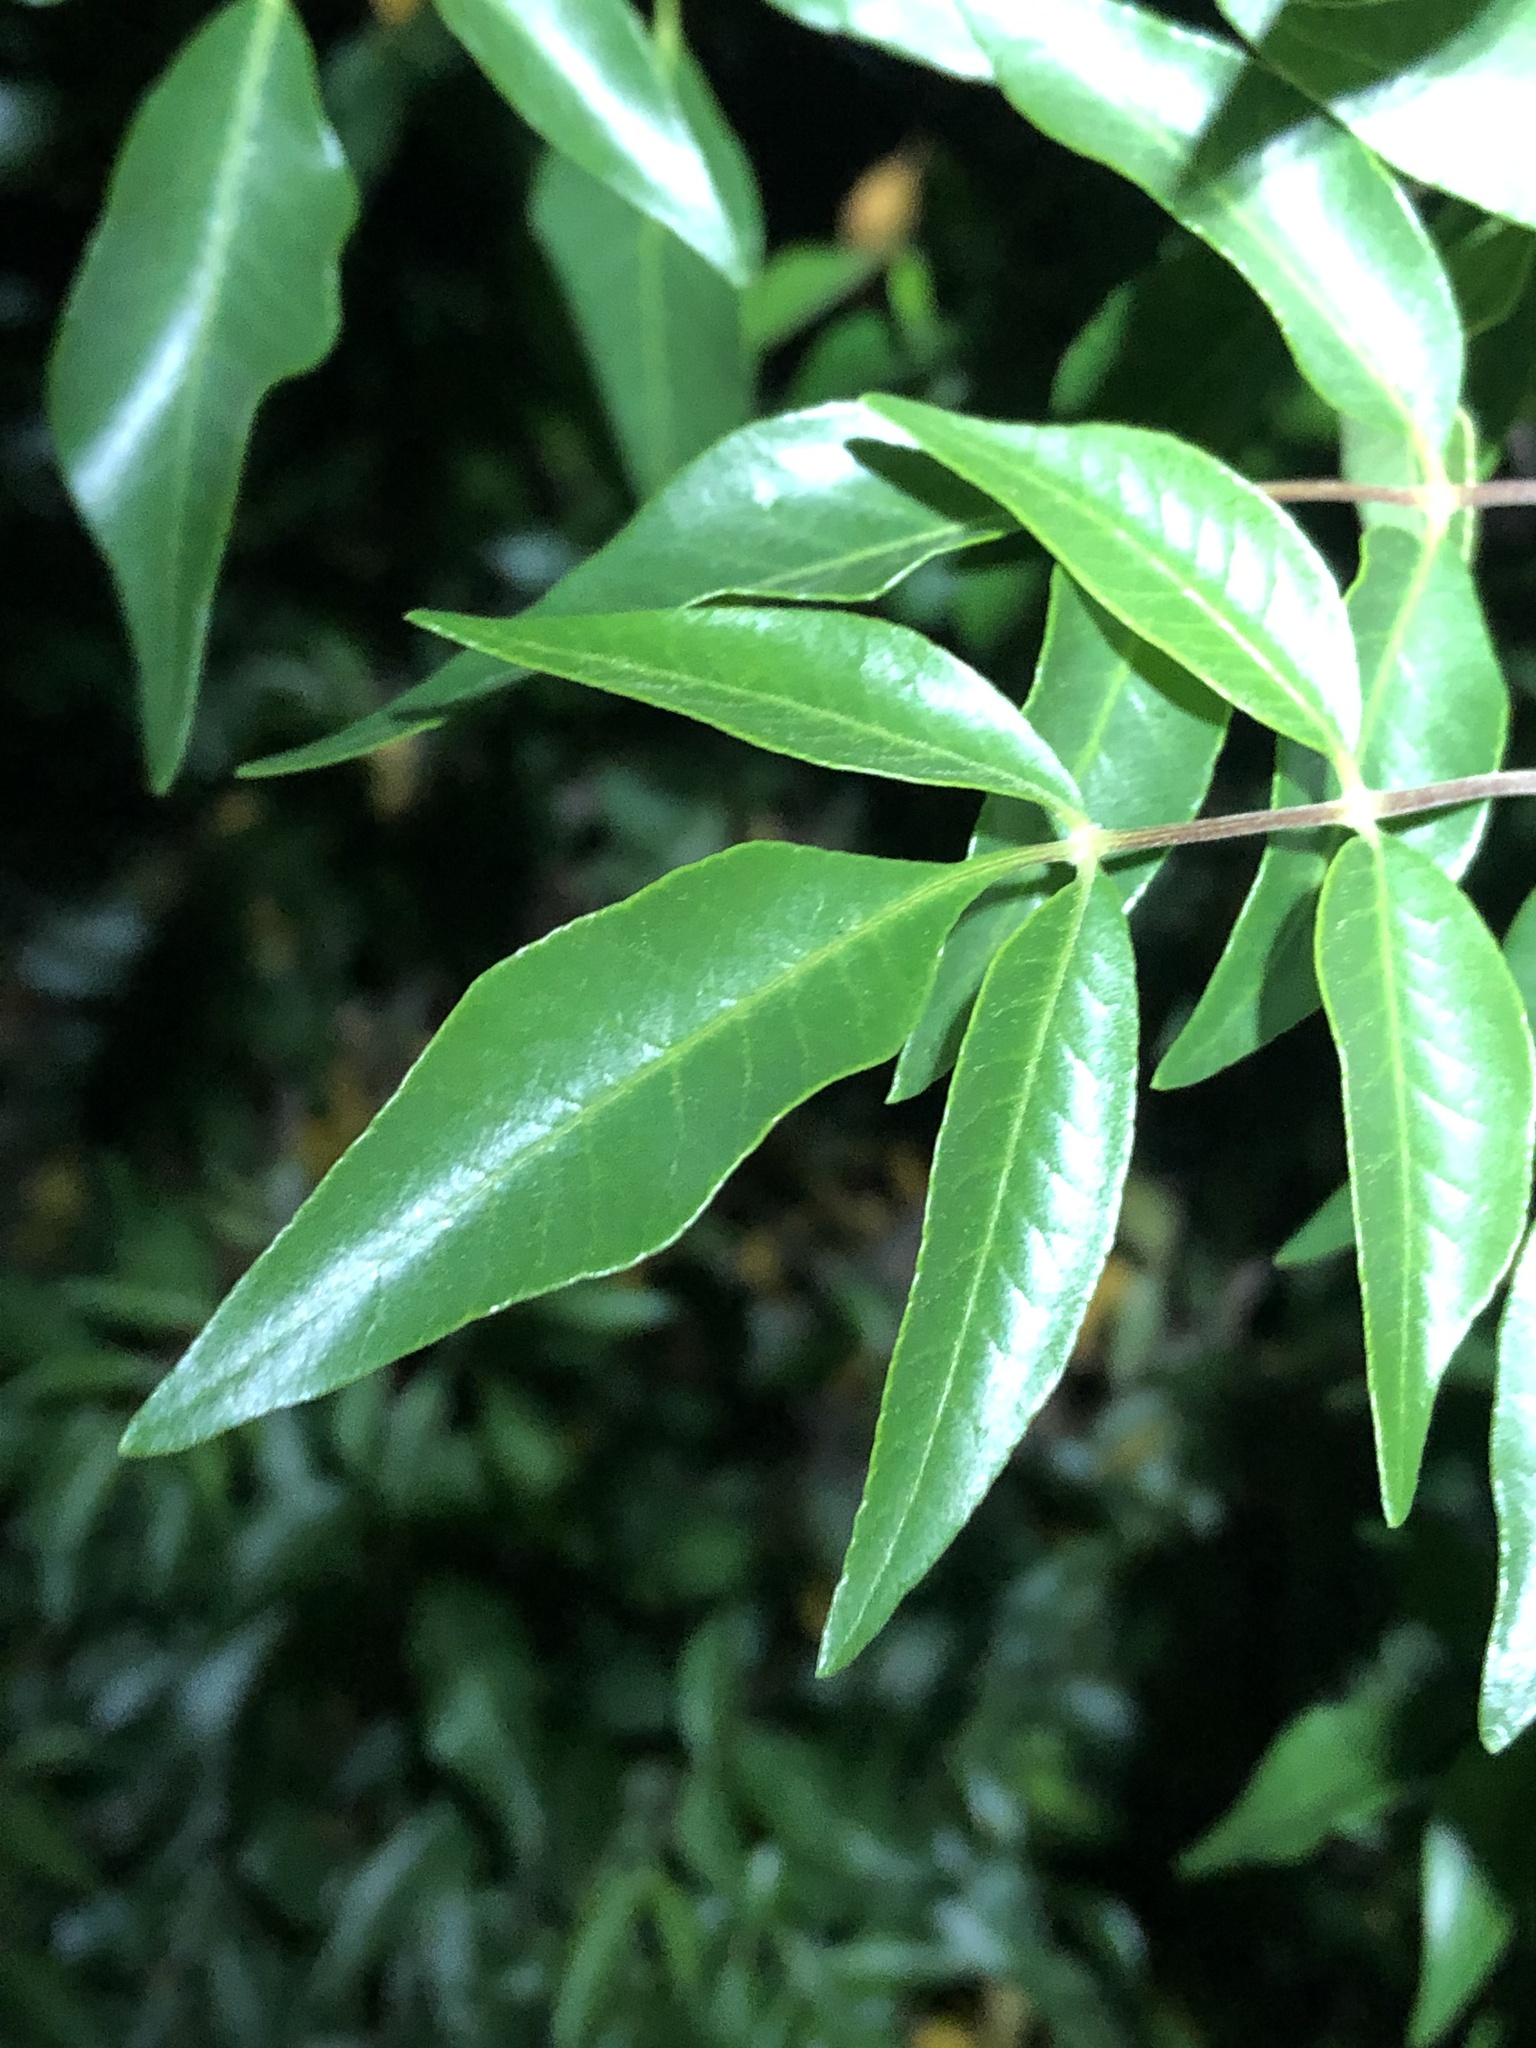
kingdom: Plantae
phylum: Tracheophyta
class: Magnoliopsida
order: Sapindales
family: Anacardiaceae
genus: Rhus
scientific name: Rhus virens
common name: Evergreen sumac
